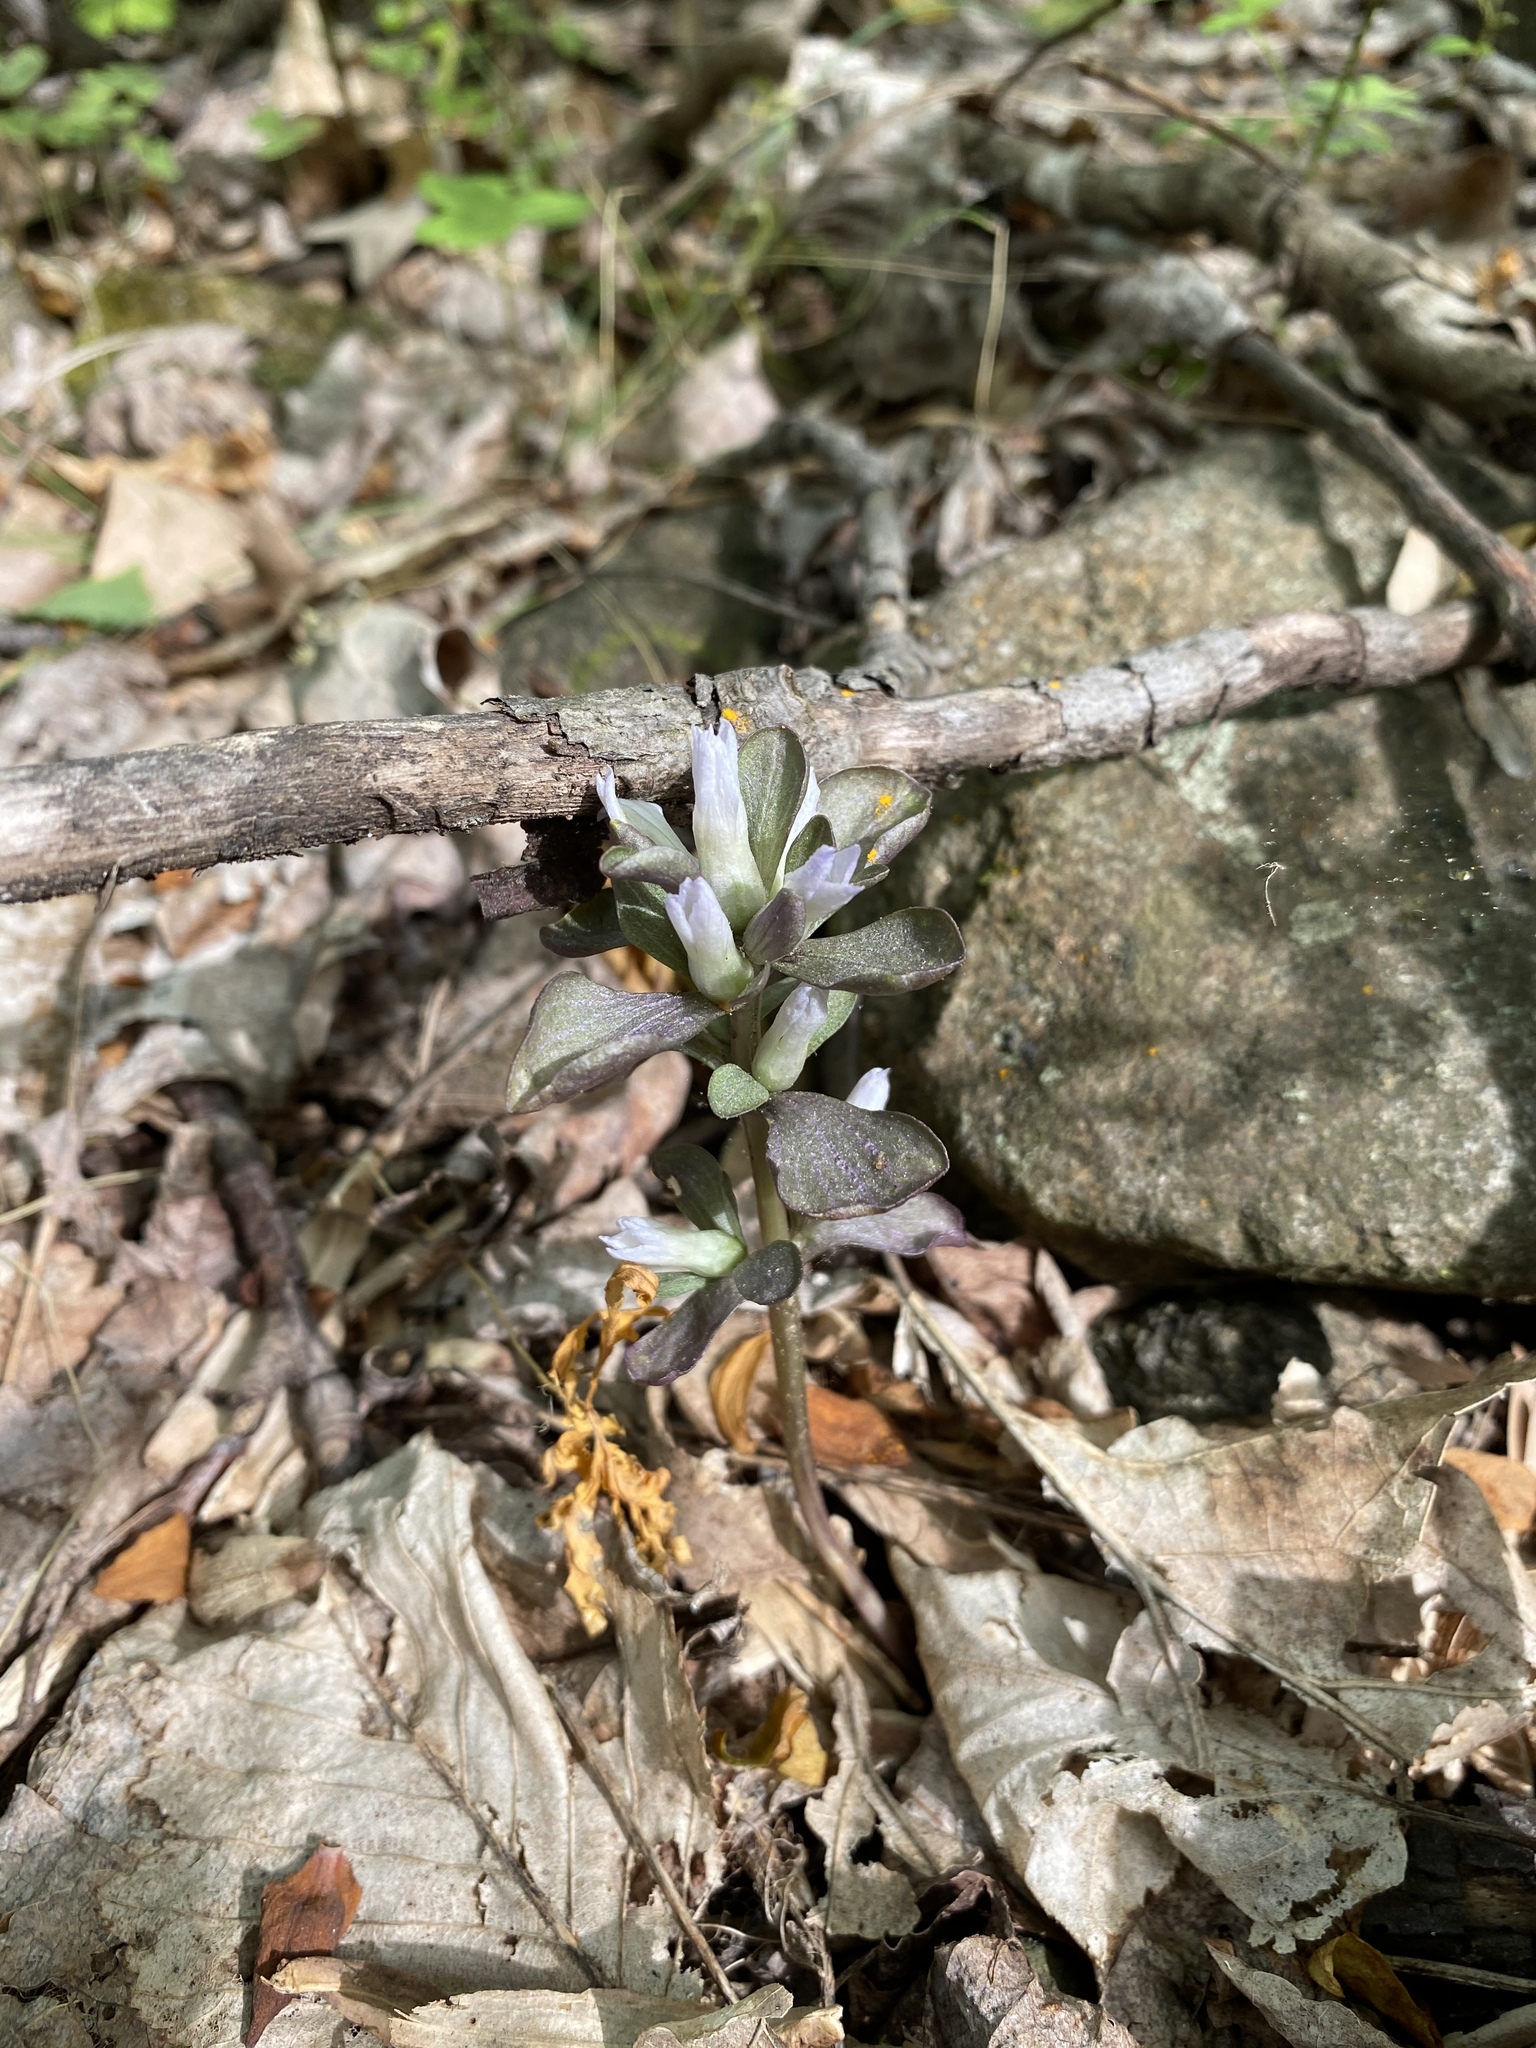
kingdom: Plantae
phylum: Tracheophyta
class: Magnoliopsida
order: Gentianales
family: Gentianaceae
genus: Obolaria
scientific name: Obolaria virginica
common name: Pennywort
